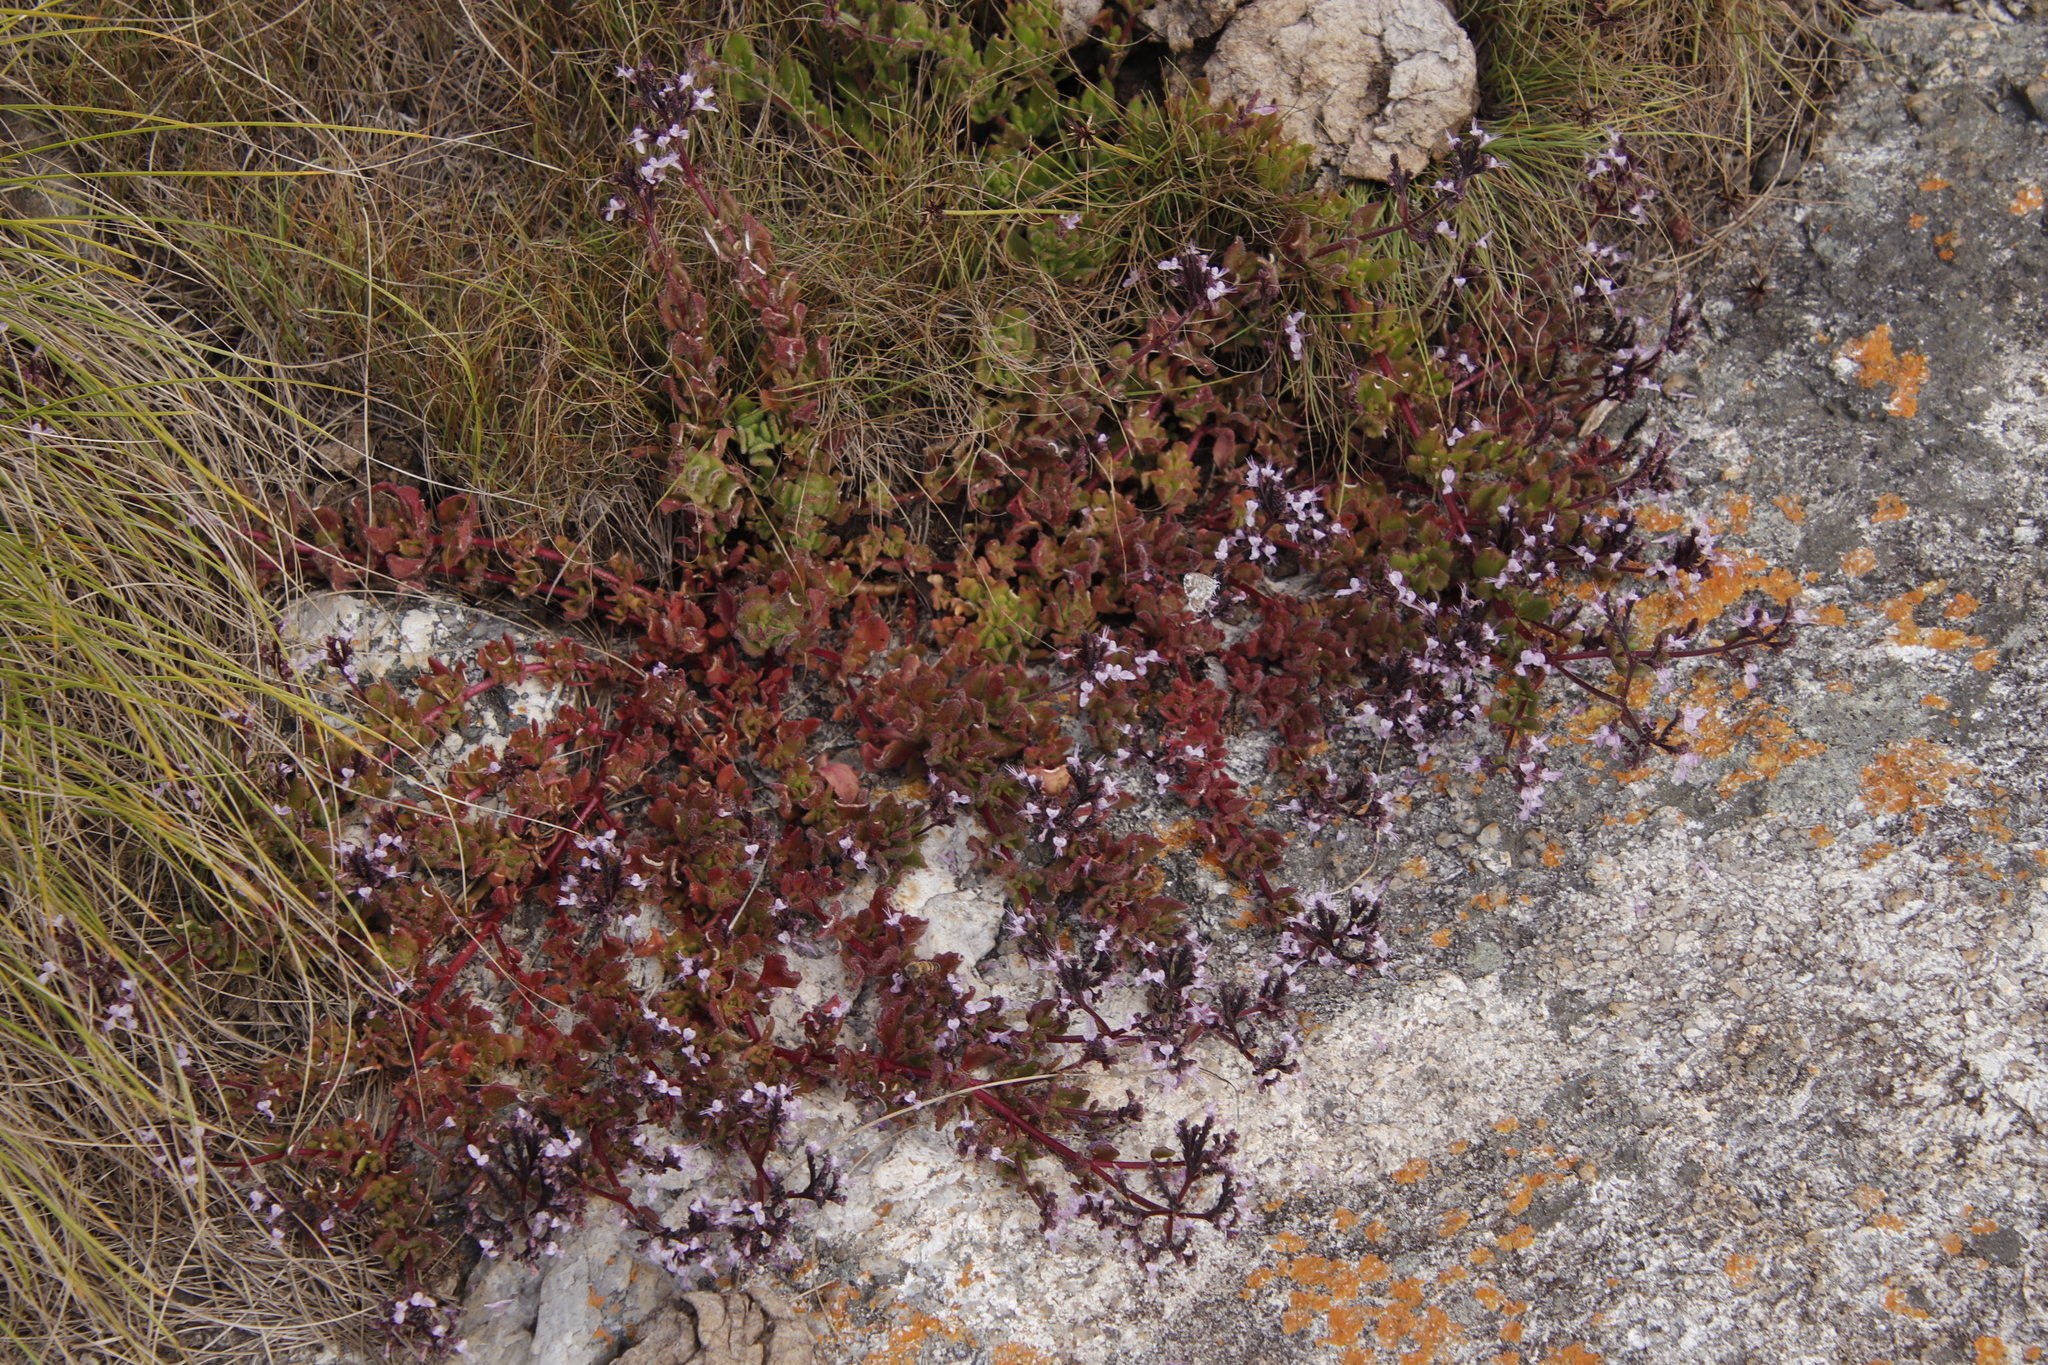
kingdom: Plantae
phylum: Tracheophyta
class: Magnoliopsida
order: Lamiales
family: Lamiaceae
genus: Aeollanthus
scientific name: Aeollanthus serpiculoides
